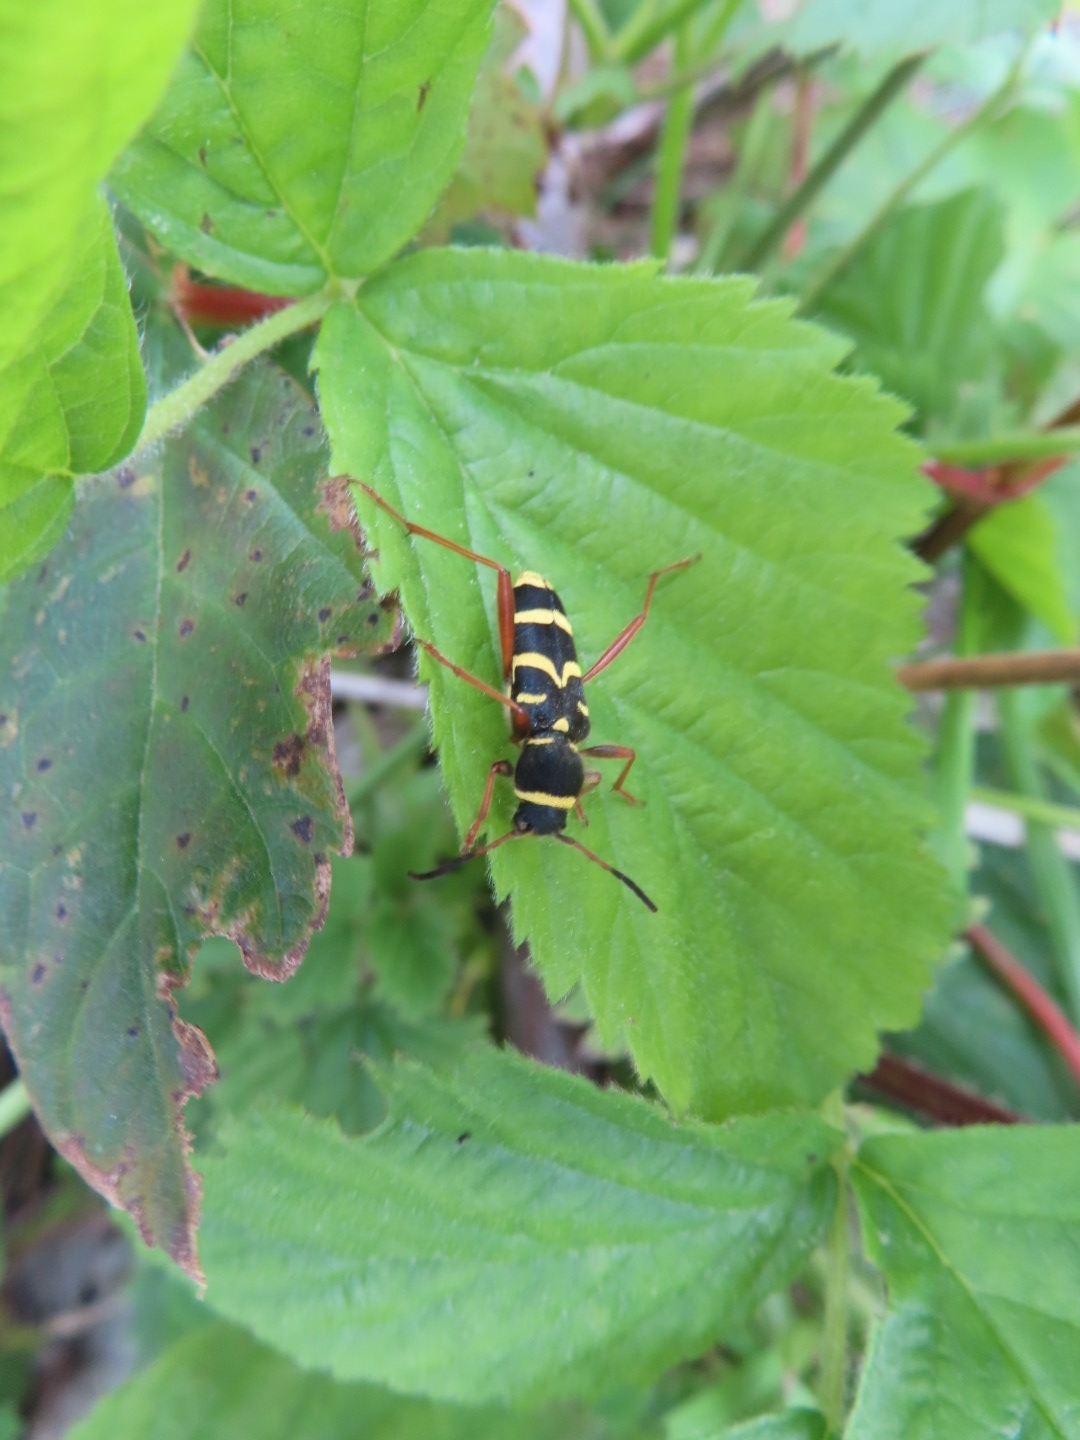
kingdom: Animalia
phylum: Arthropoda
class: Insecta
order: Coleoptera
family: Cerambycidae
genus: Clytus
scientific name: Clytus arietis
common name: Wasp beetle
